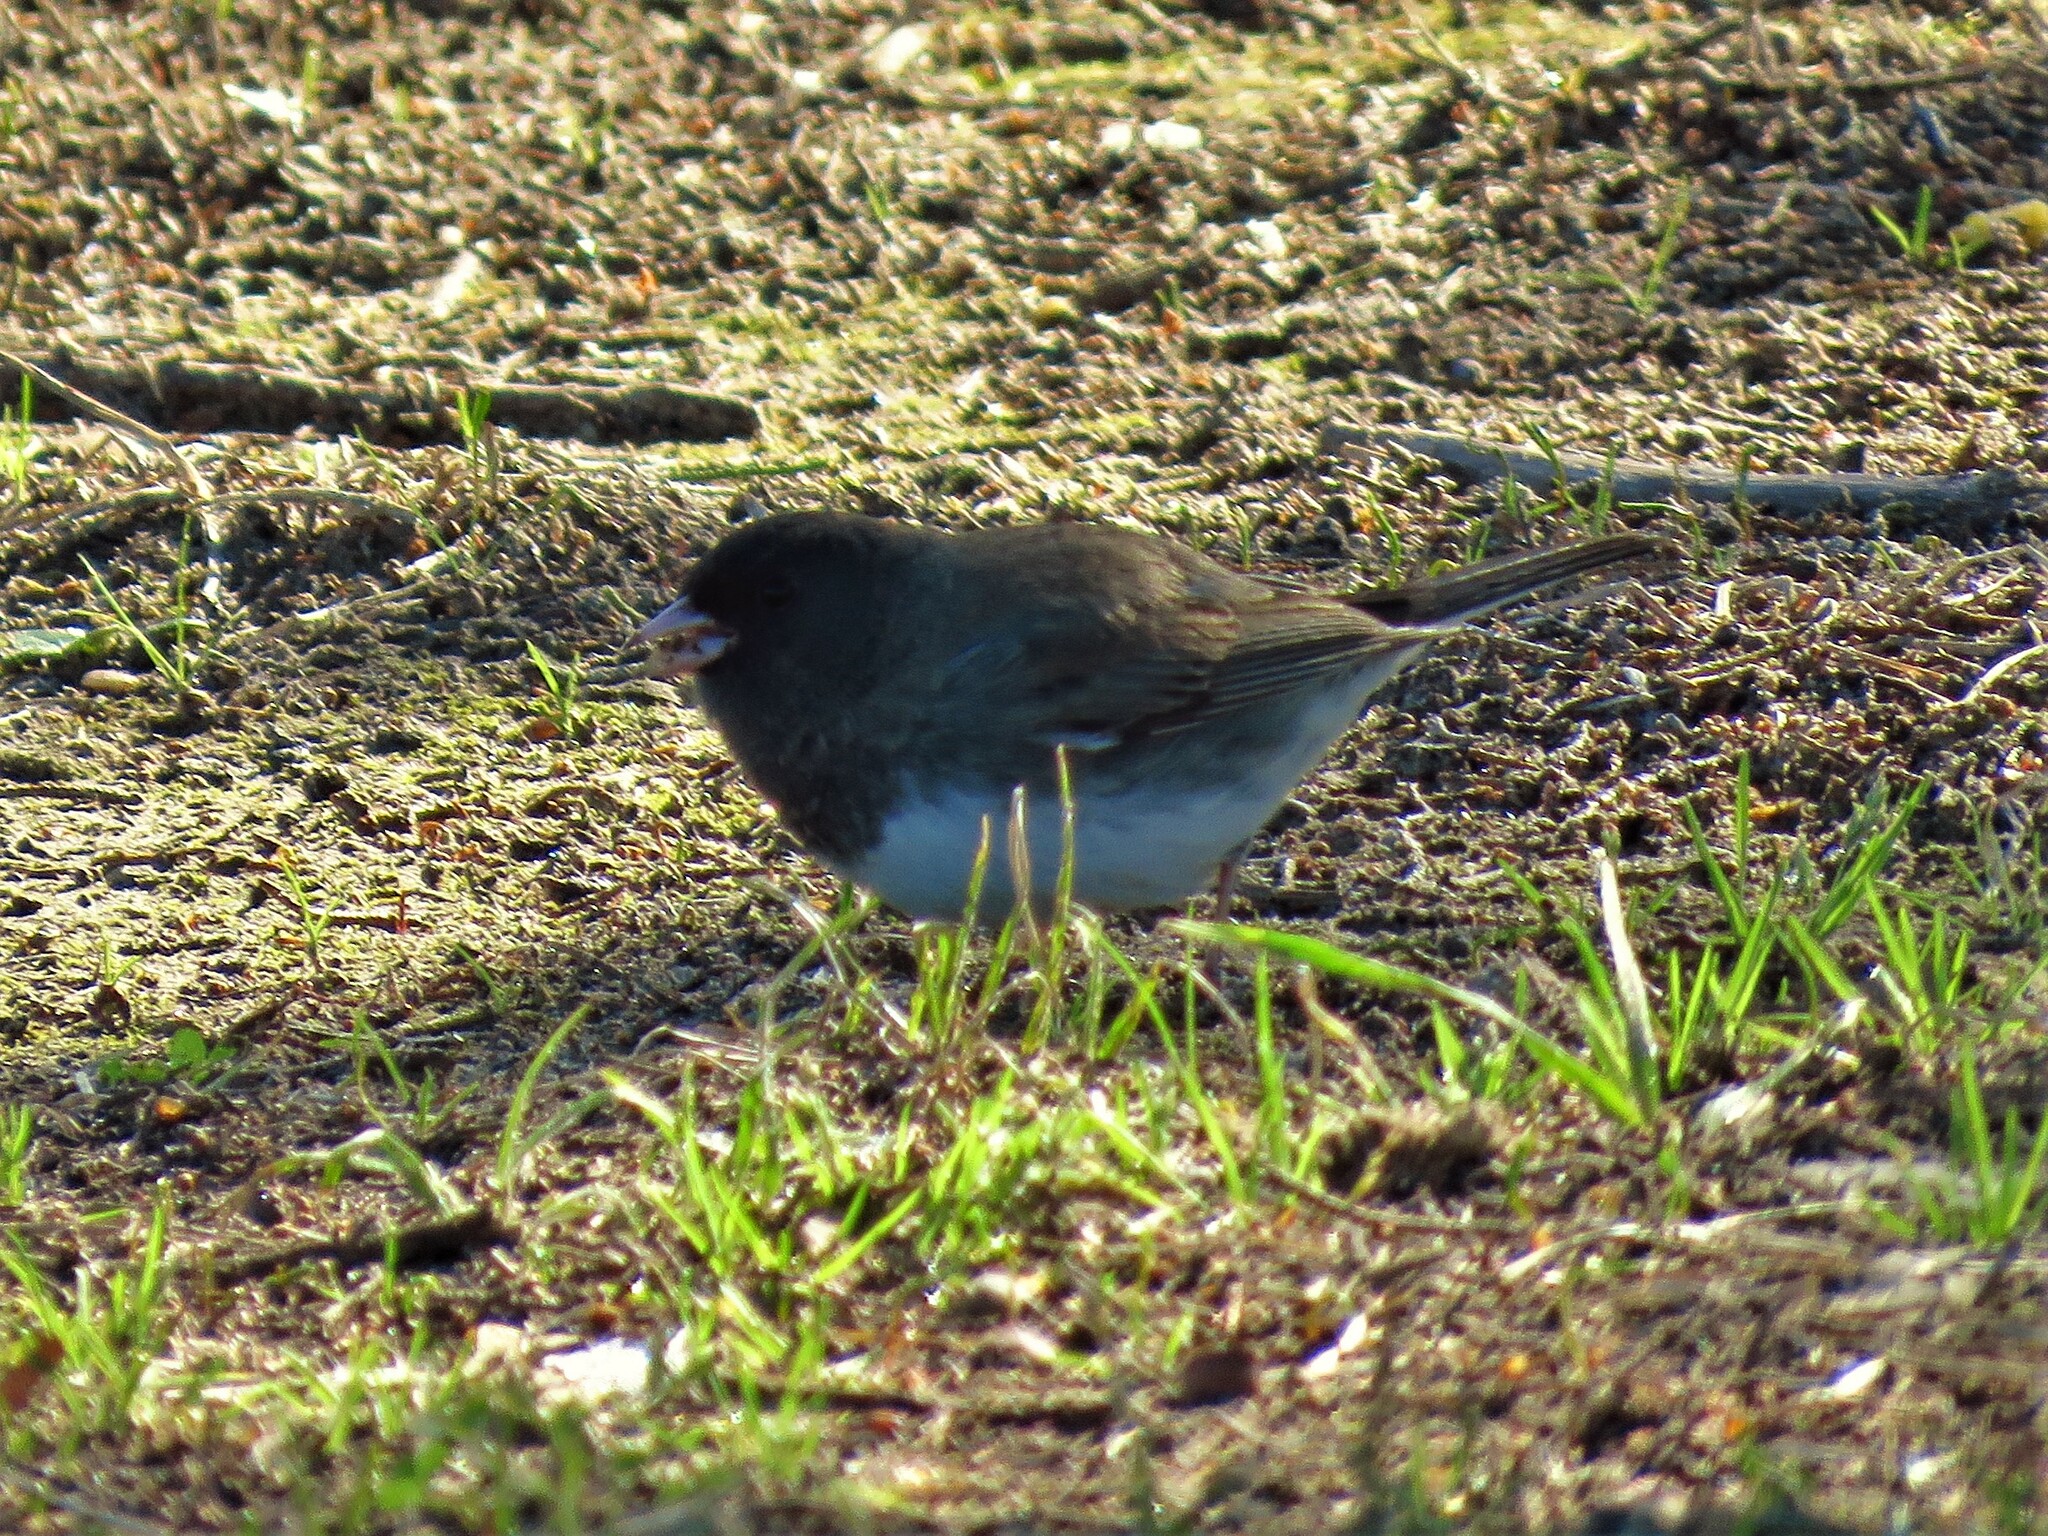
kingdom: Animalia
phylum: Chordata
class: Aves
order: Passeriformes
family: Passerellidae
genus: Junco
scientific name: Junco hyemalis
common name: Dark-eyed junco
